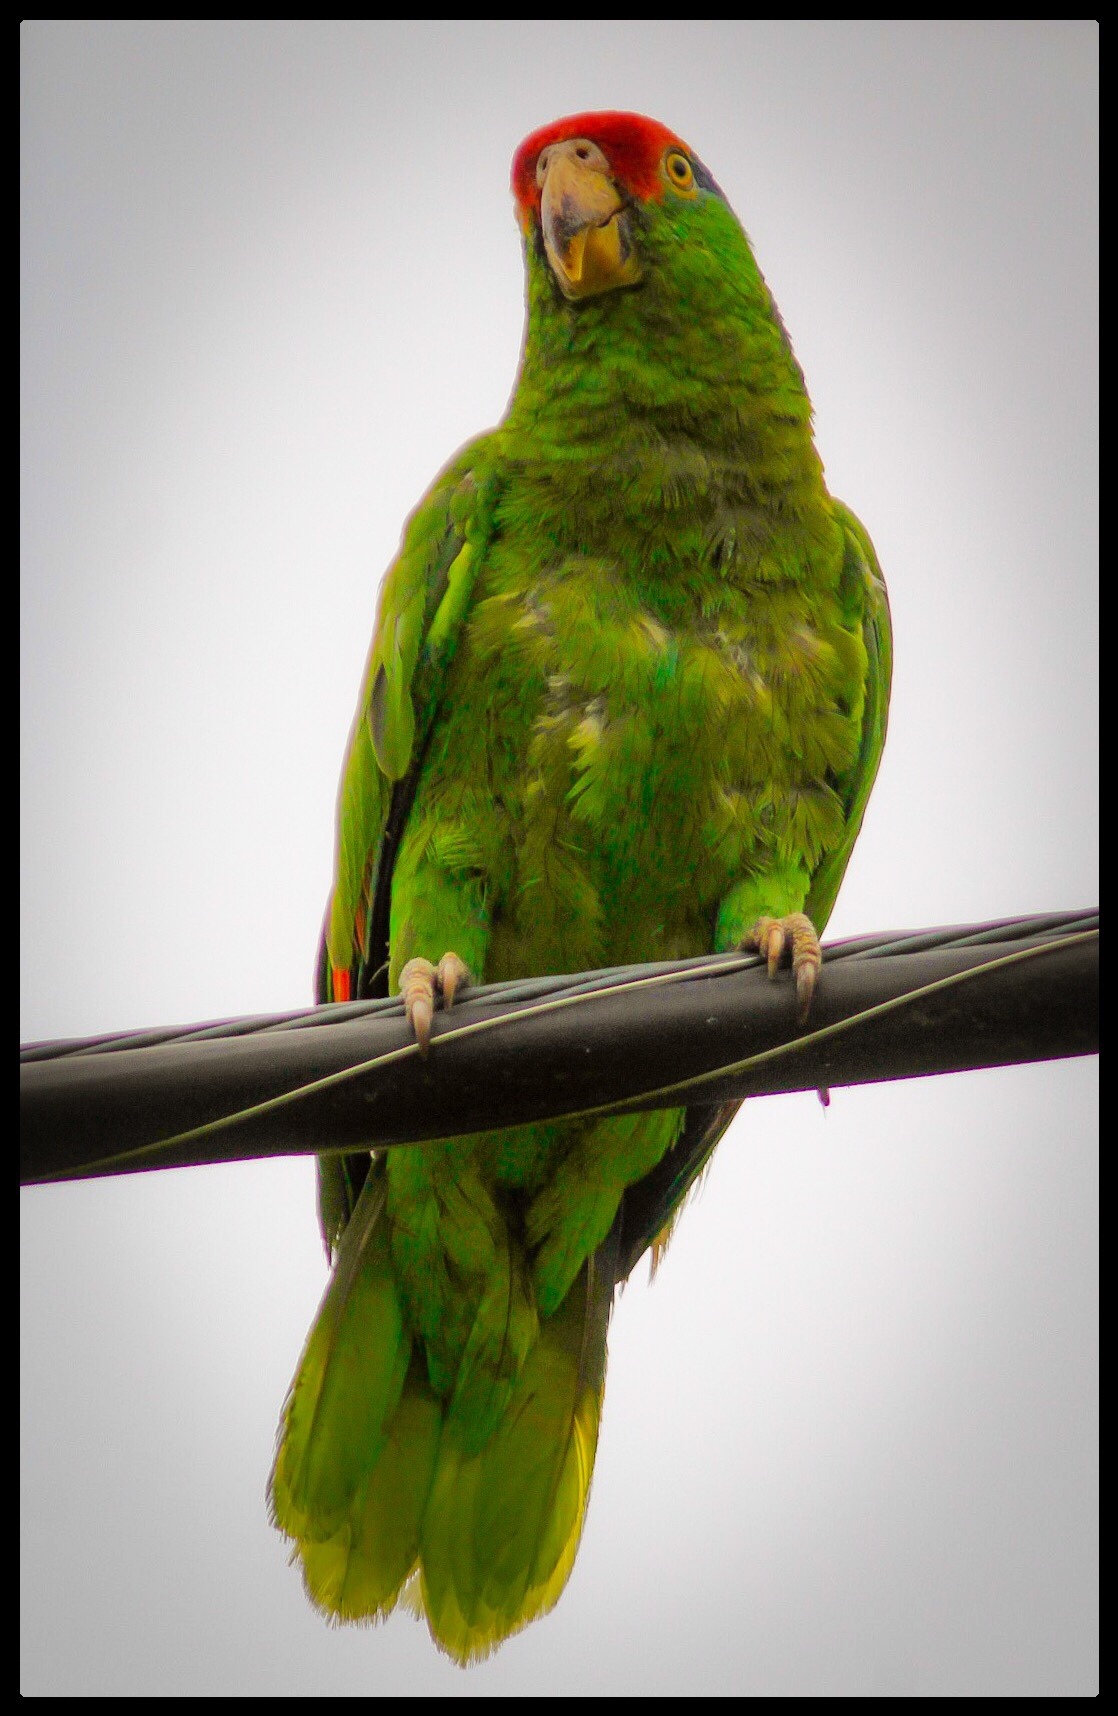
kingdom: Animalia
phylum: Chordata
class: Aves
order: Psittaciformes
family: Psittacidae
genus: Amazona
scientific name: Amazona viridigenalis
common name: Red-crowned amazon
